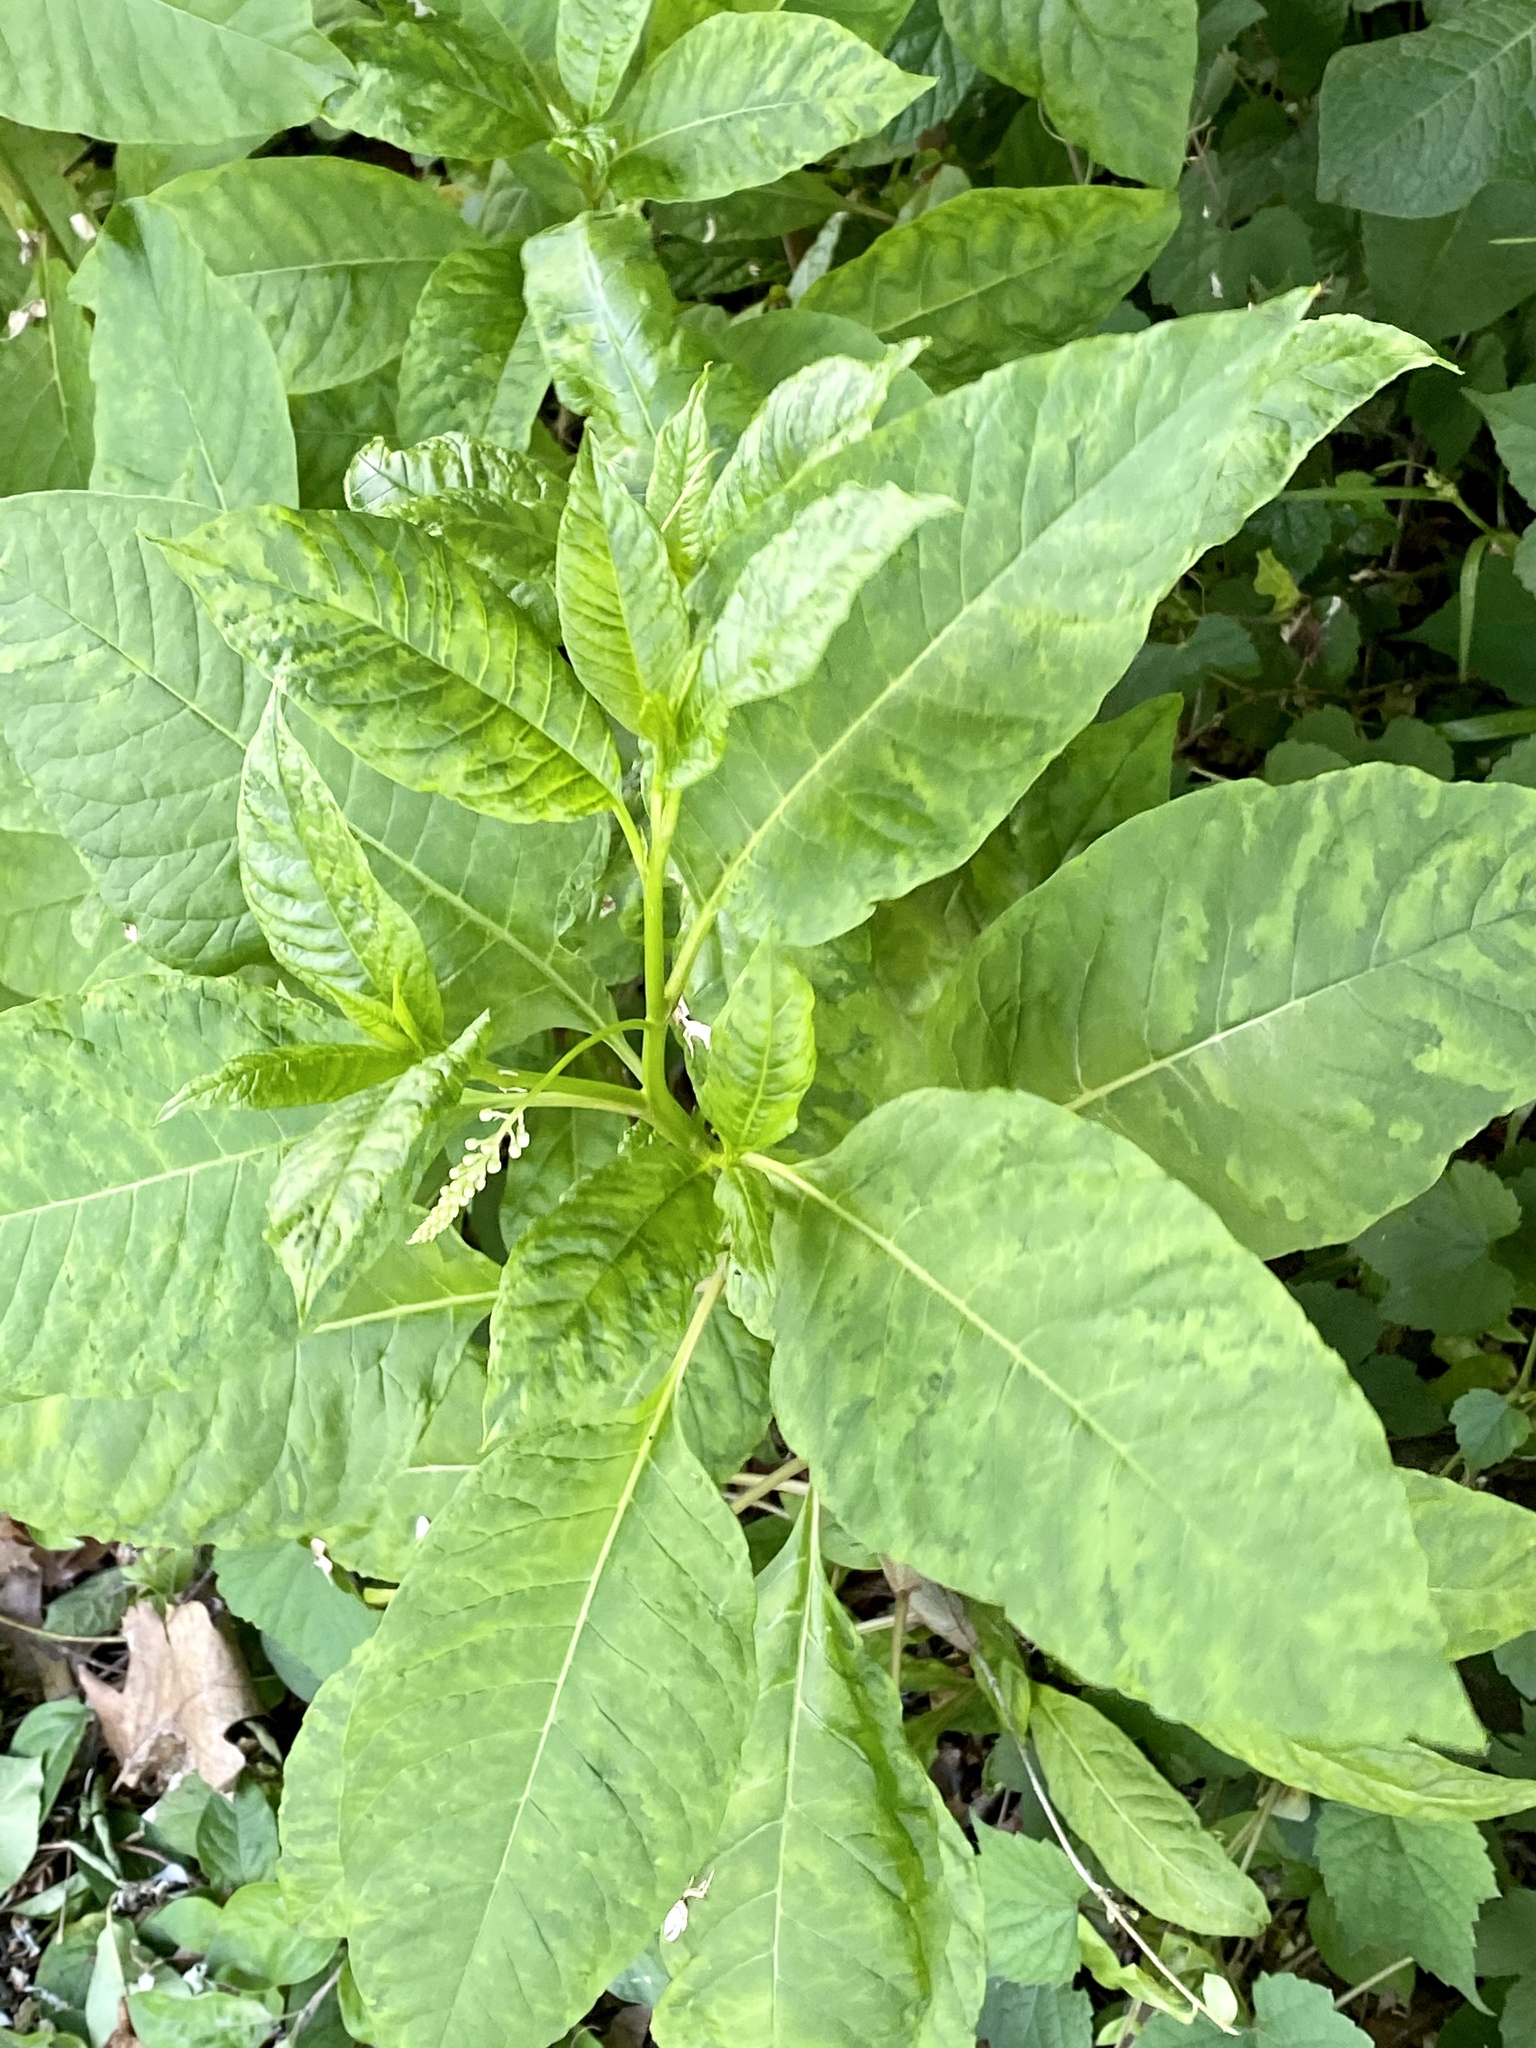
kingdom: Plantae
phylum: Tracheophyta
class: Magnoliopsida
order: Caryophyllales
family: Phytolaccaceae
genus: Phytolacca
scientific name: Phytolacca americana
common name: American pokeweed
